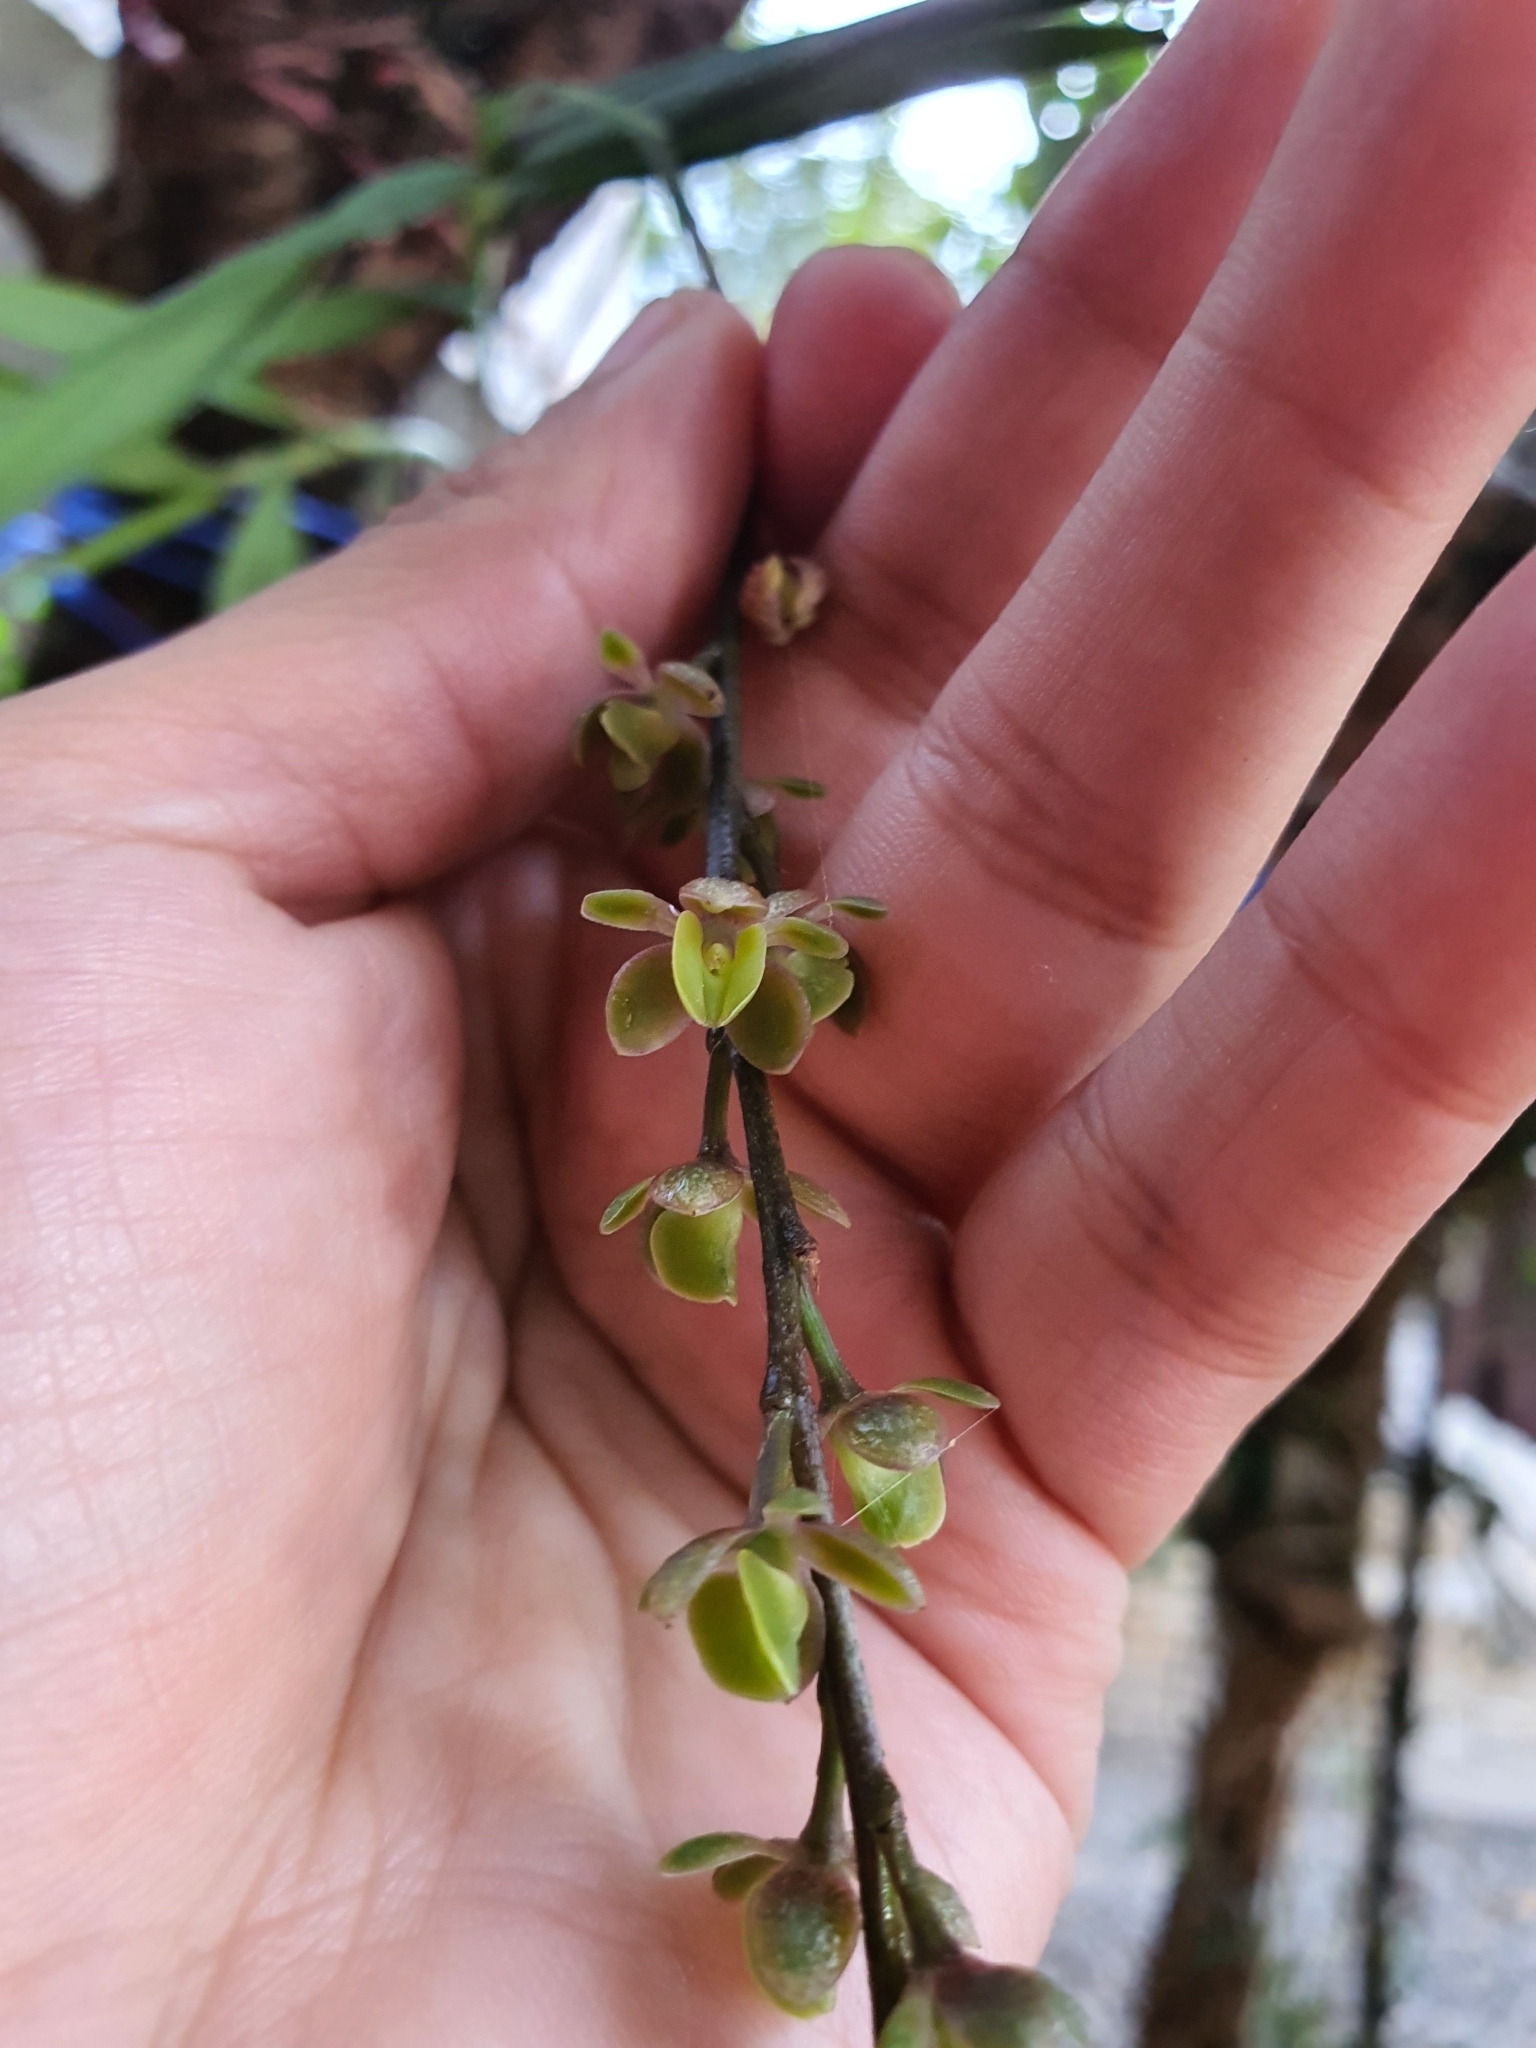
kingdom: Plantae
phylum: Tracheophyta
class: Liliopsida
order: Asparagales
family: Orchidaceae
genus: Epidendrum
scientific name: Epidendrum laucheanum
